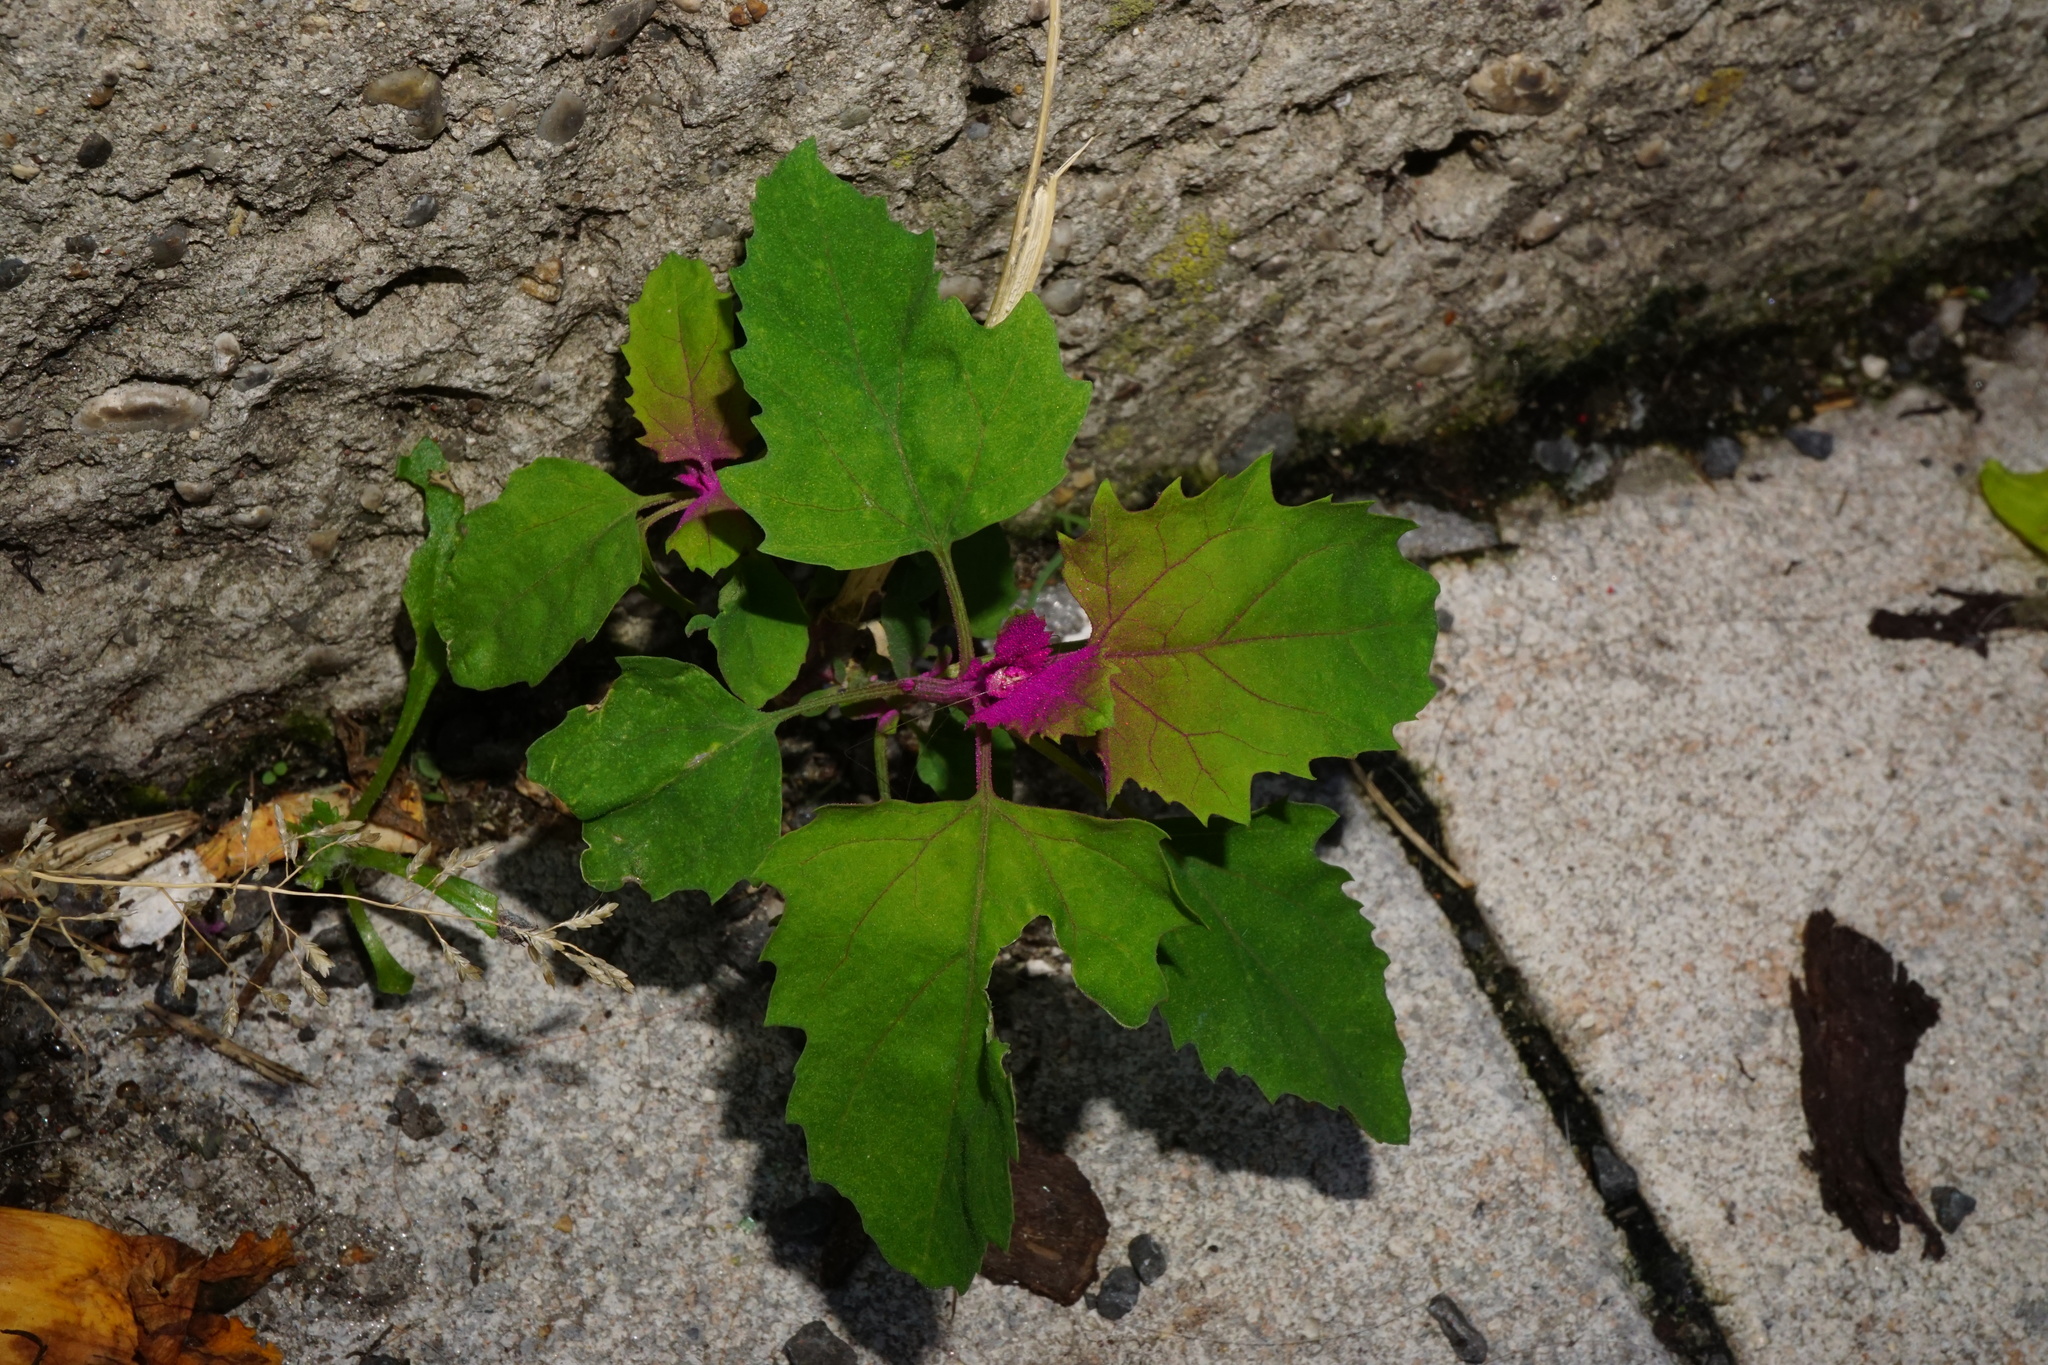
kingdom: Plantae
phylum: Tracheophyta
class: Magnoliopsida
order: Caryophyllales
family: Amaranthaceae
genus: Chenopodium
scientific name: Chenopodium giganteum
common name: Magentaspreen
